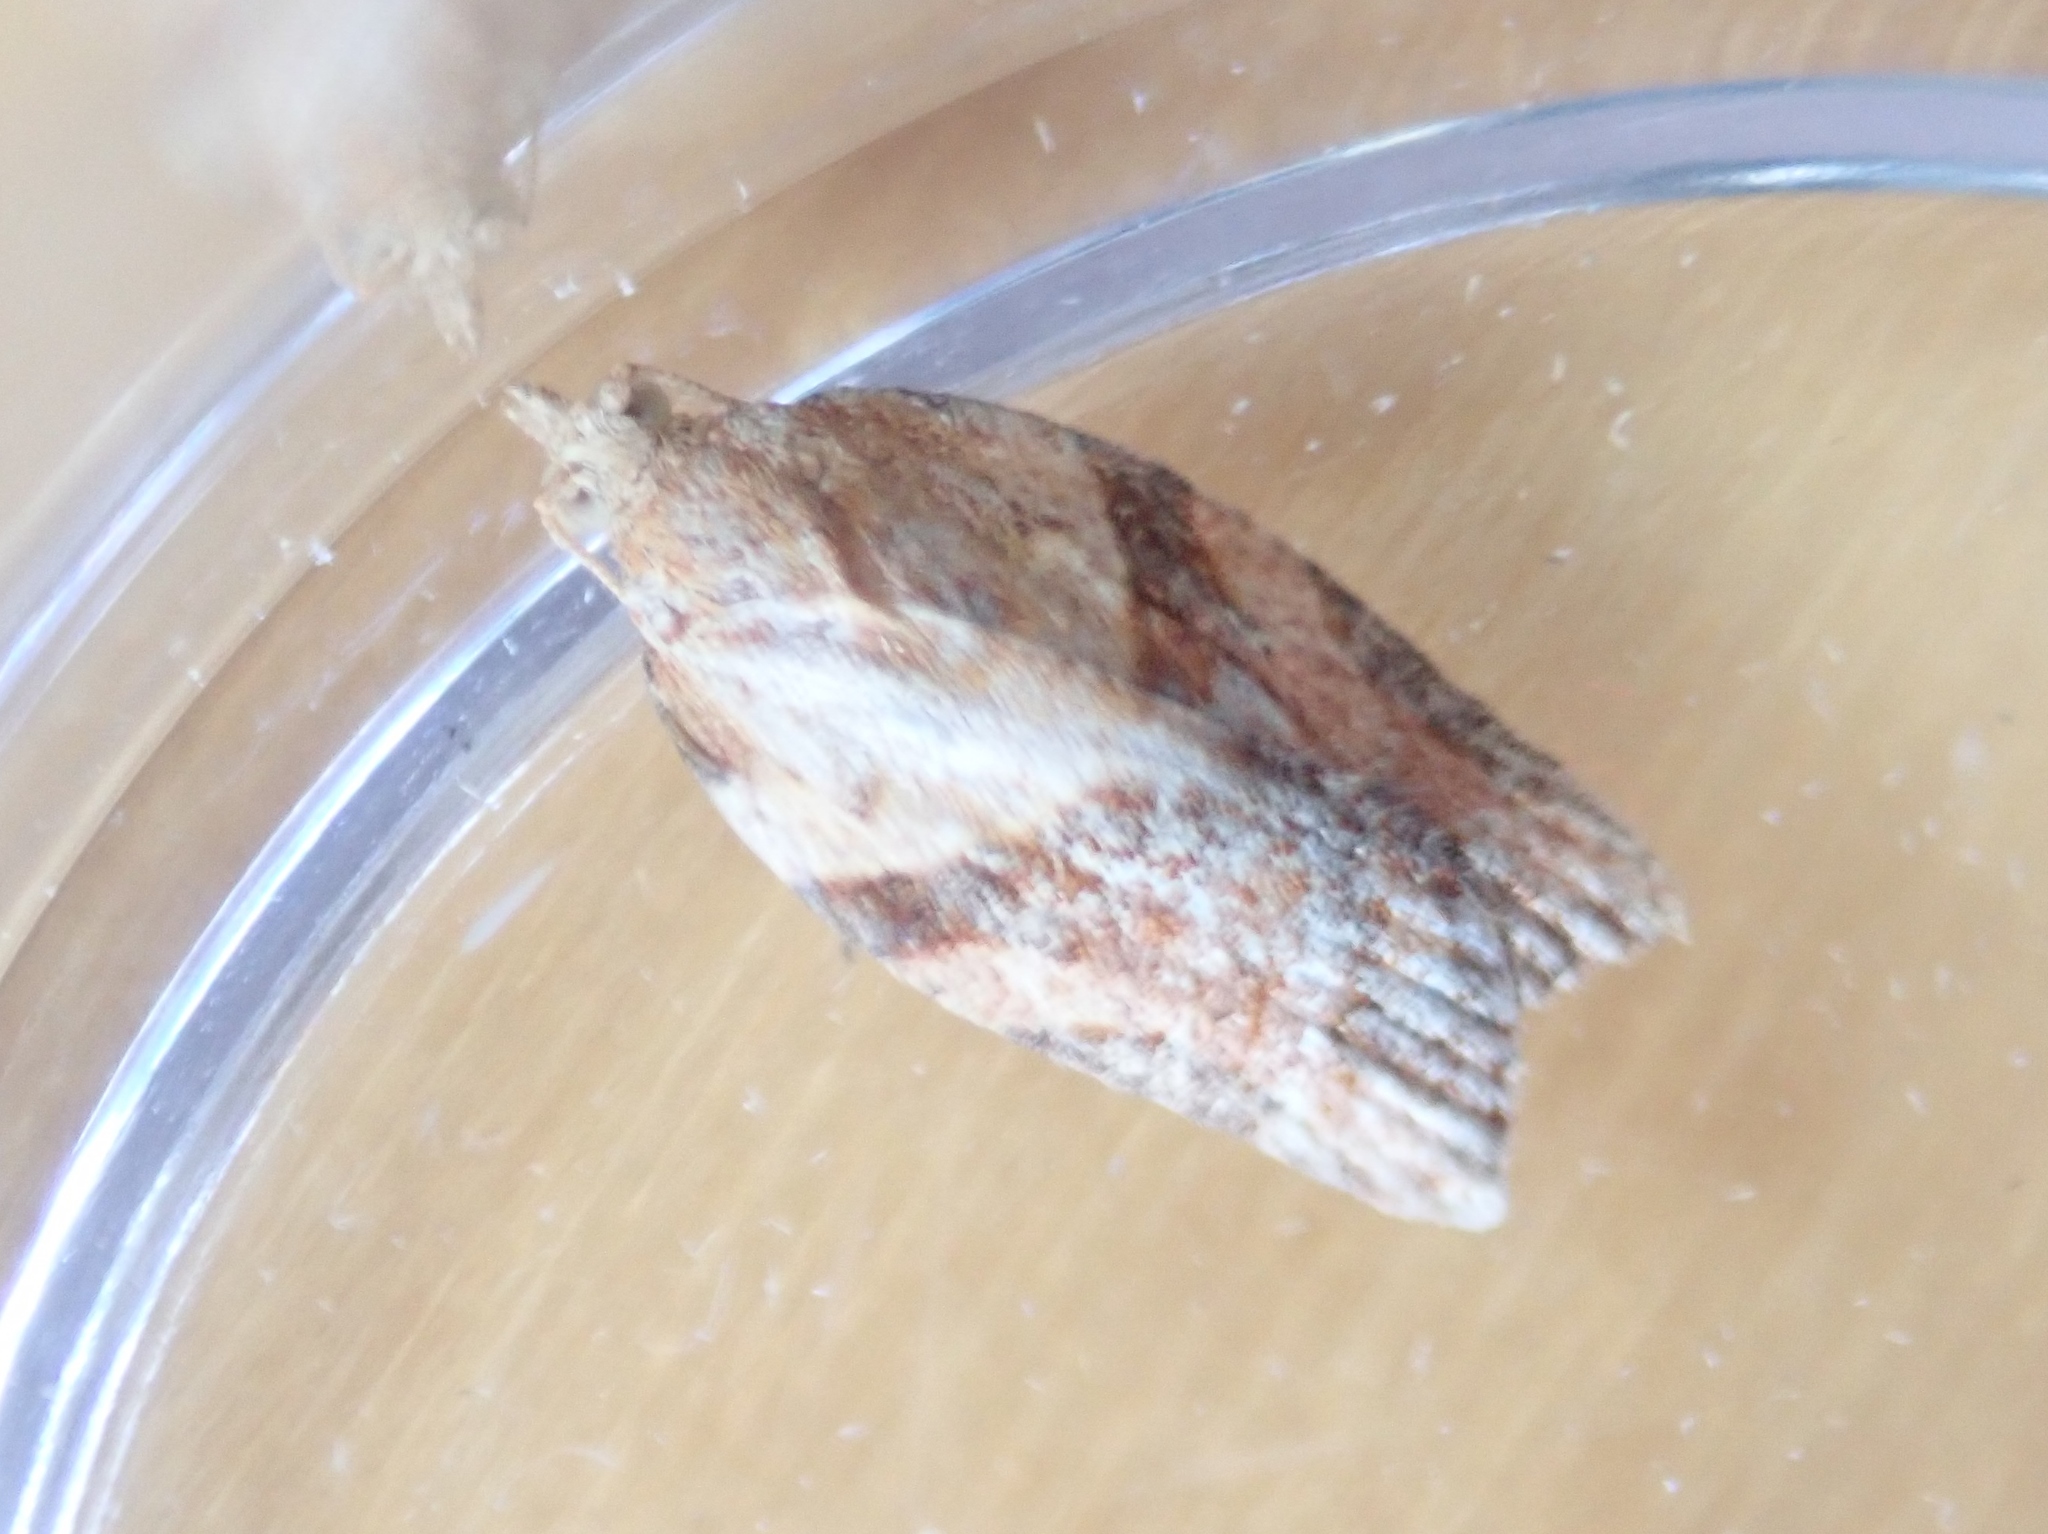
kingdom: Animalia
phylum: Arthropoda
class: Insecta
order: Lepidoptera
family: Tortricidae
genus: Epiphyas
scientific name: Epiphyas postvittana
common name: Light brown apple moth
